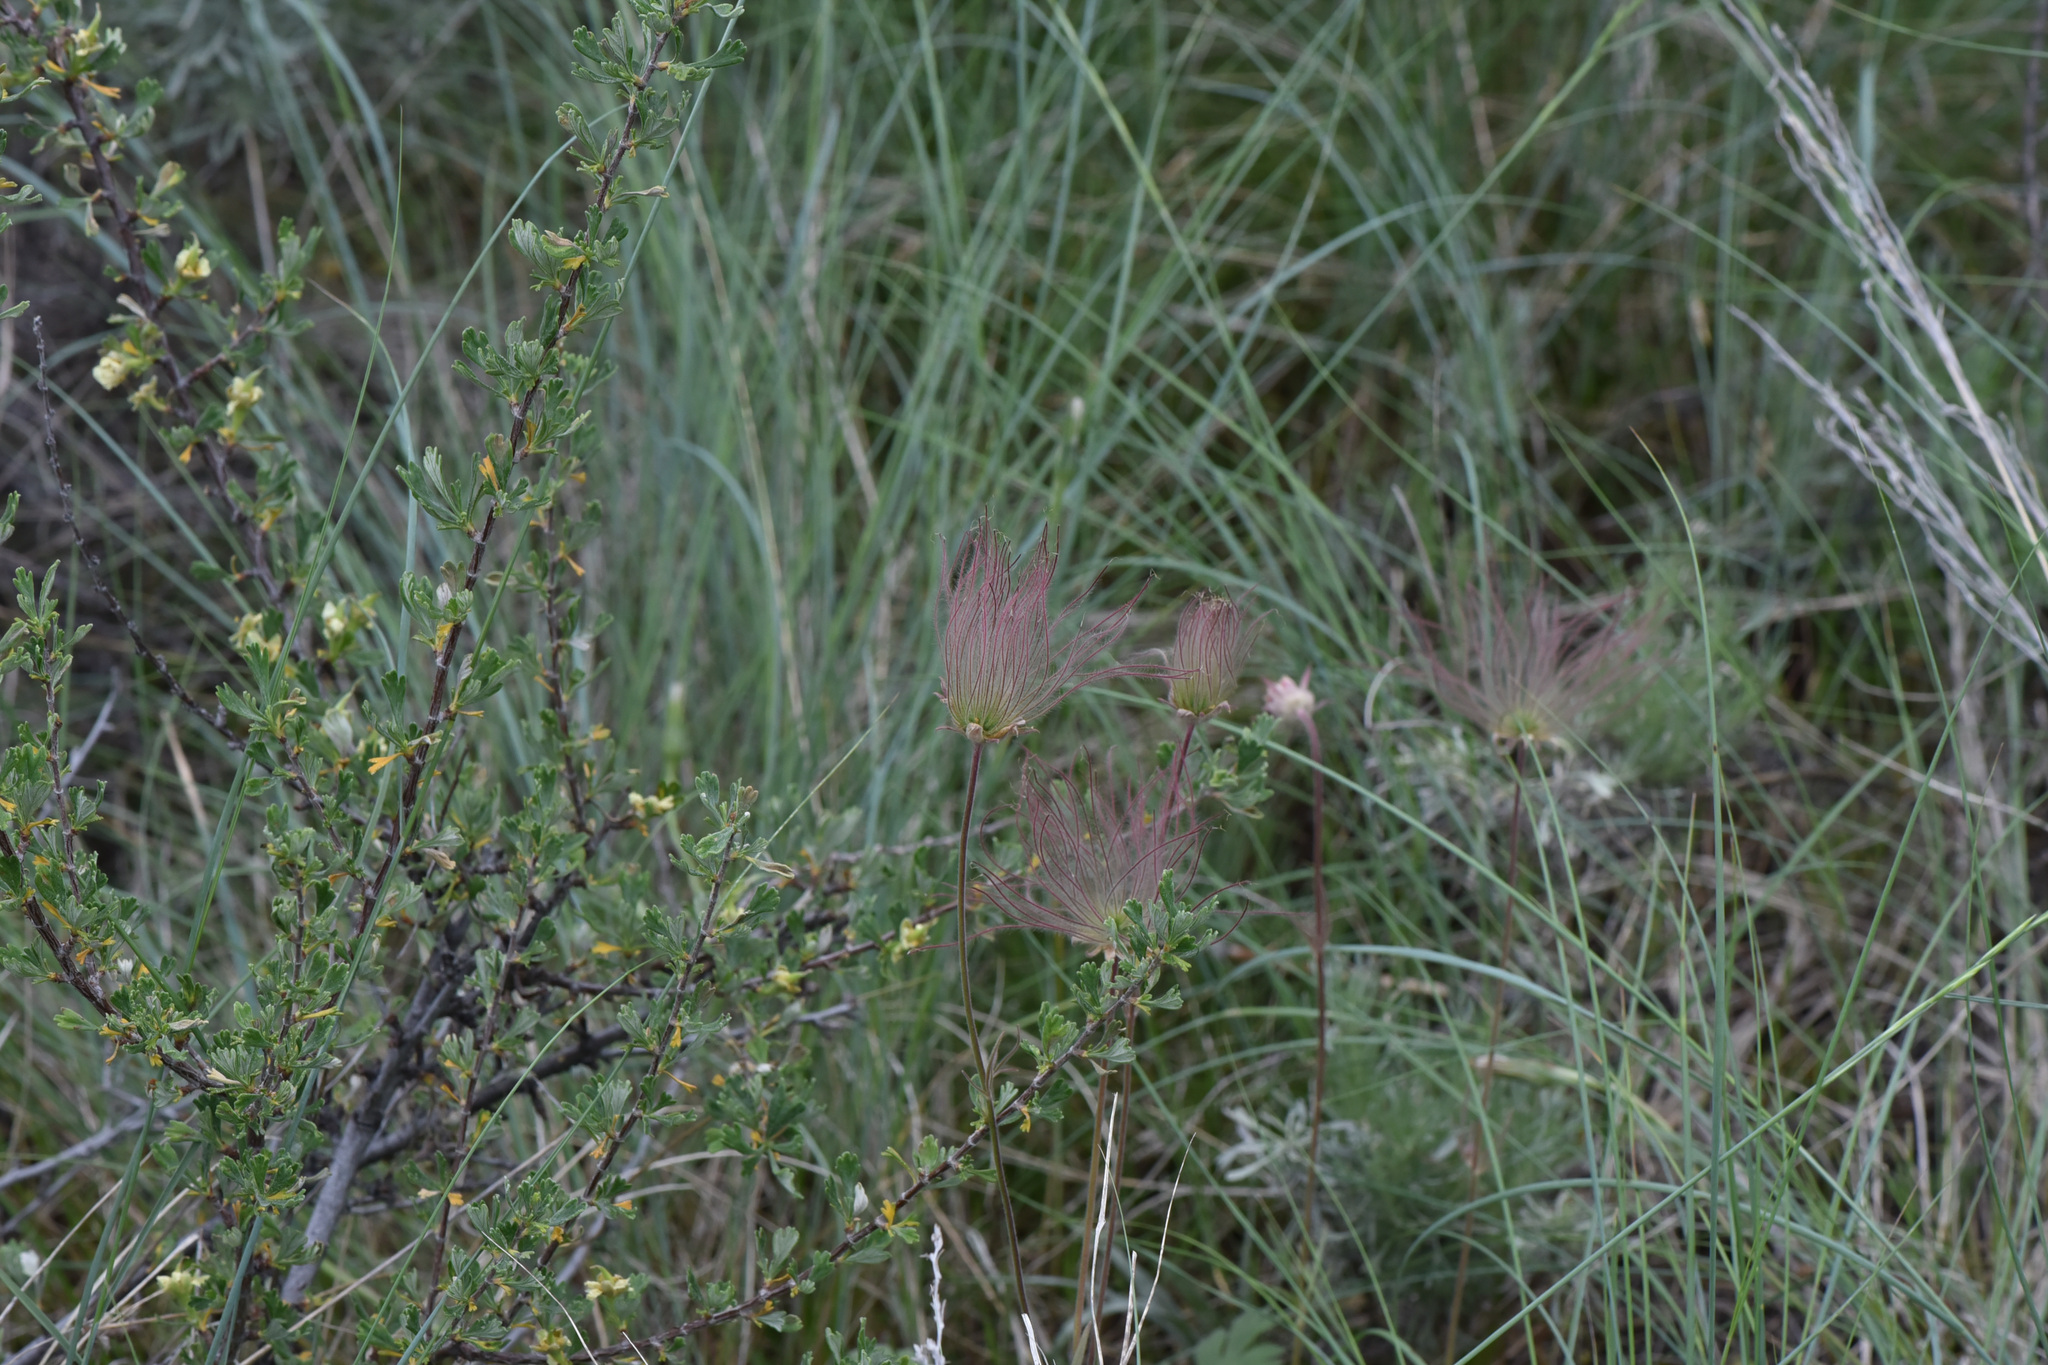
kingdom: Plantae
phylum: Tracheophyta
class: Magnoliopsida
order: Rosales
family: Rosaceae
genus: Geum
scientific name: Geum triflorum
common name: Old man's whiskers
